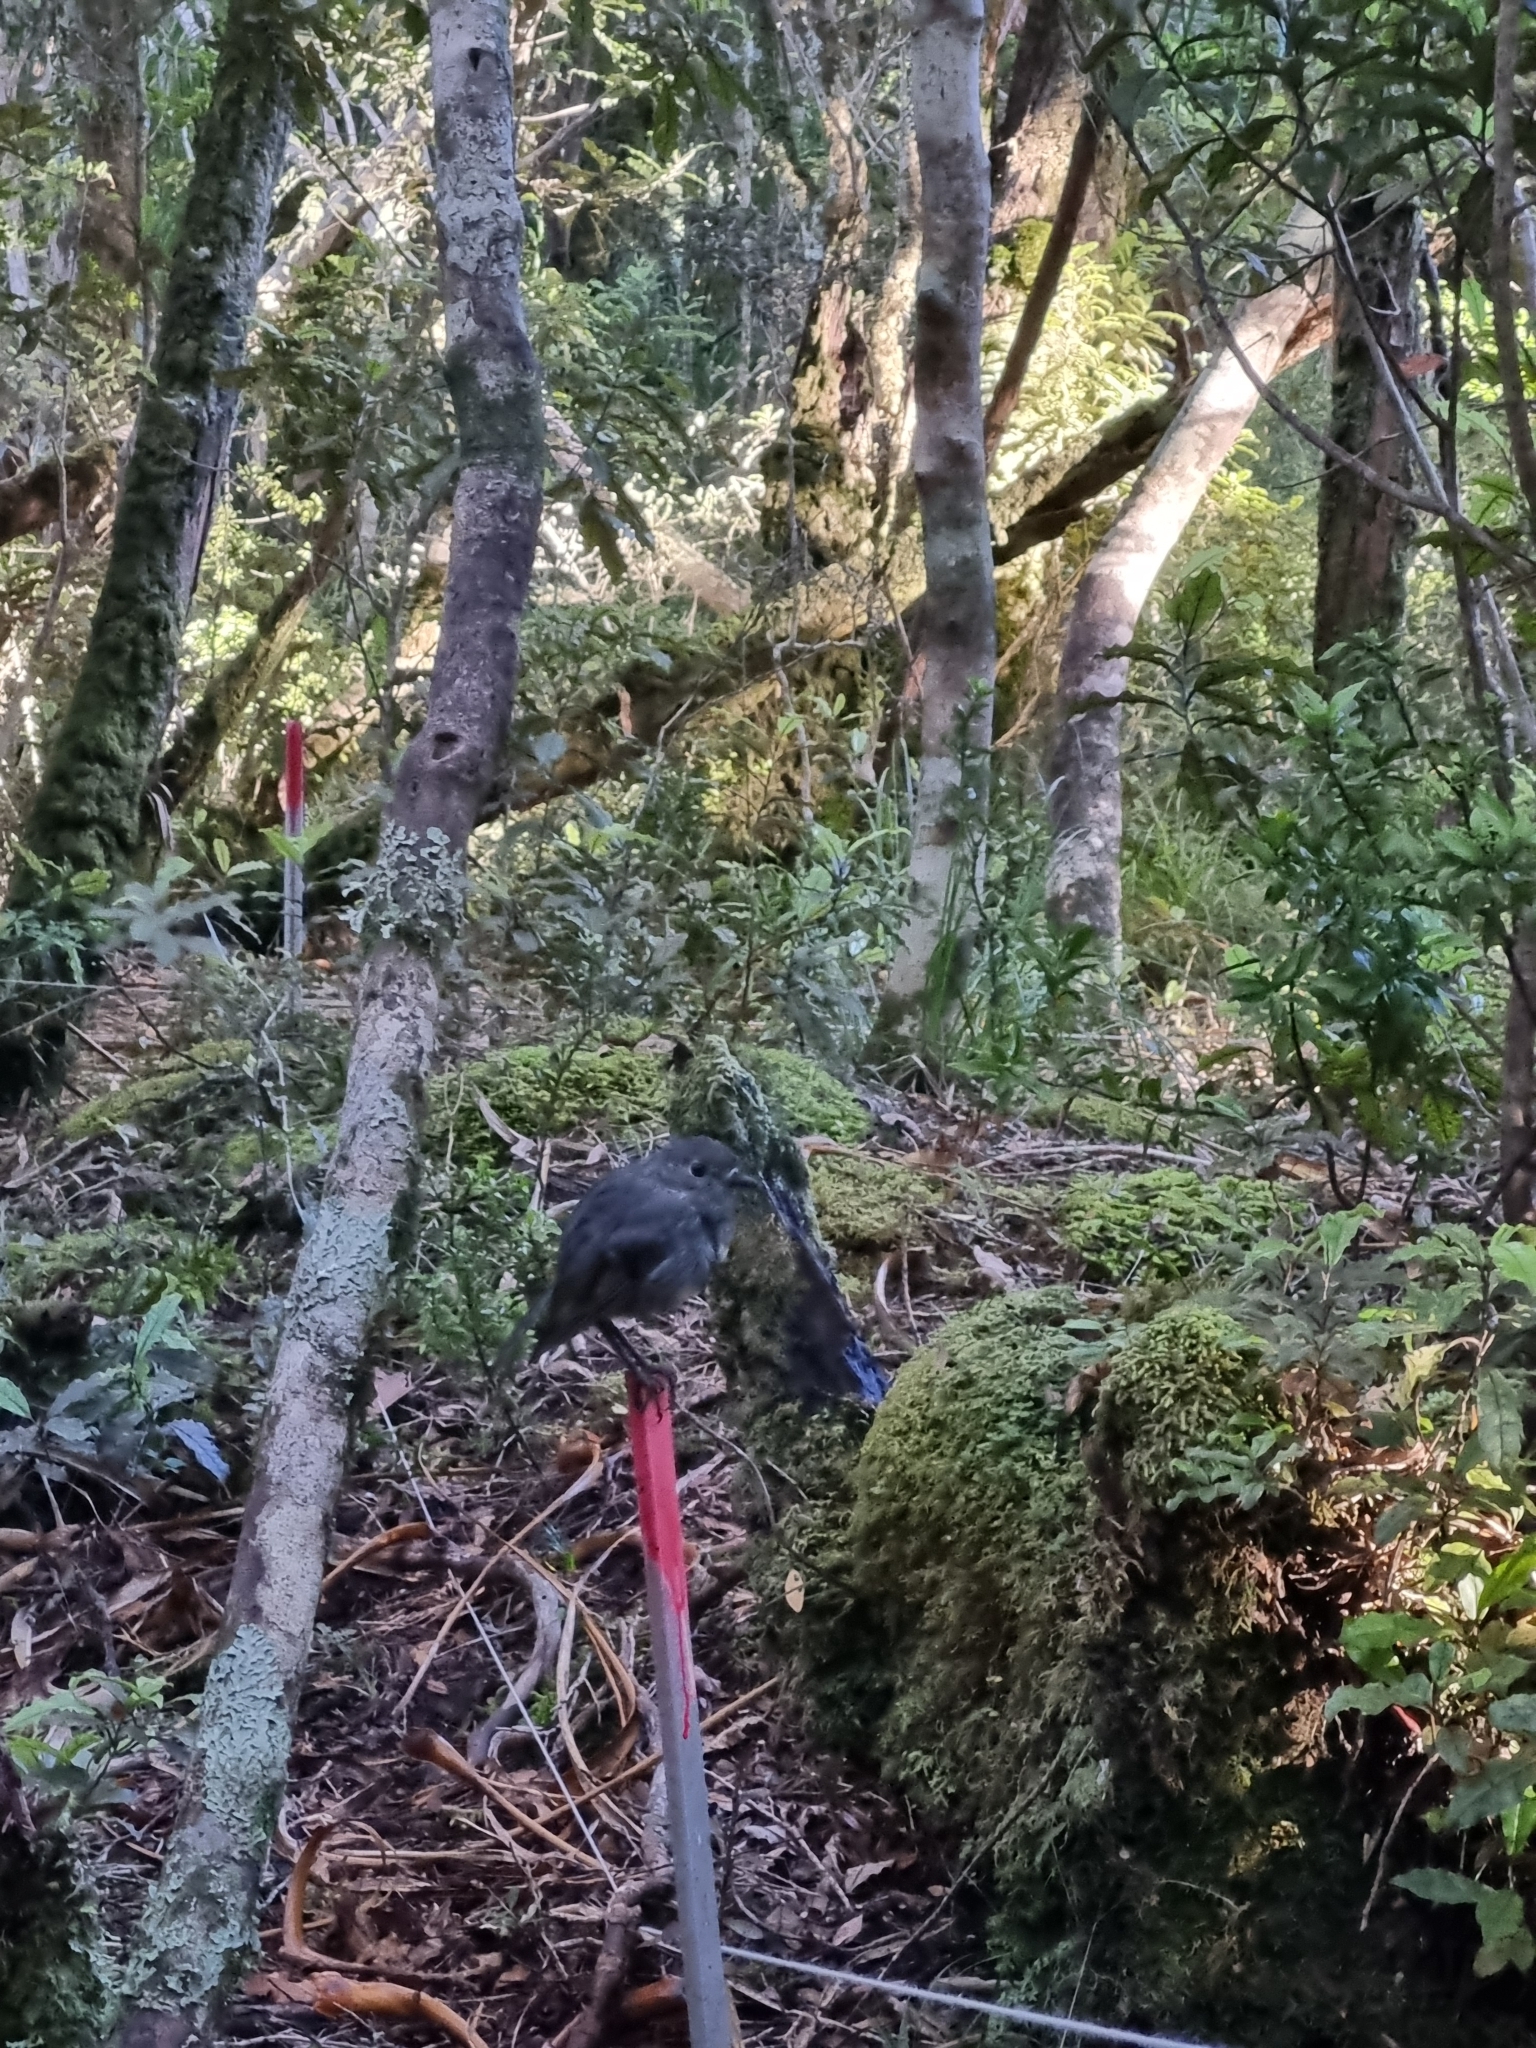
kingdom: Animalia
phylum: Chordata
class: Aves
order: Passeriformes
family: Petroicidae
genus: Petroica
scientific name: Petroica australis
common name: New zealand robin
